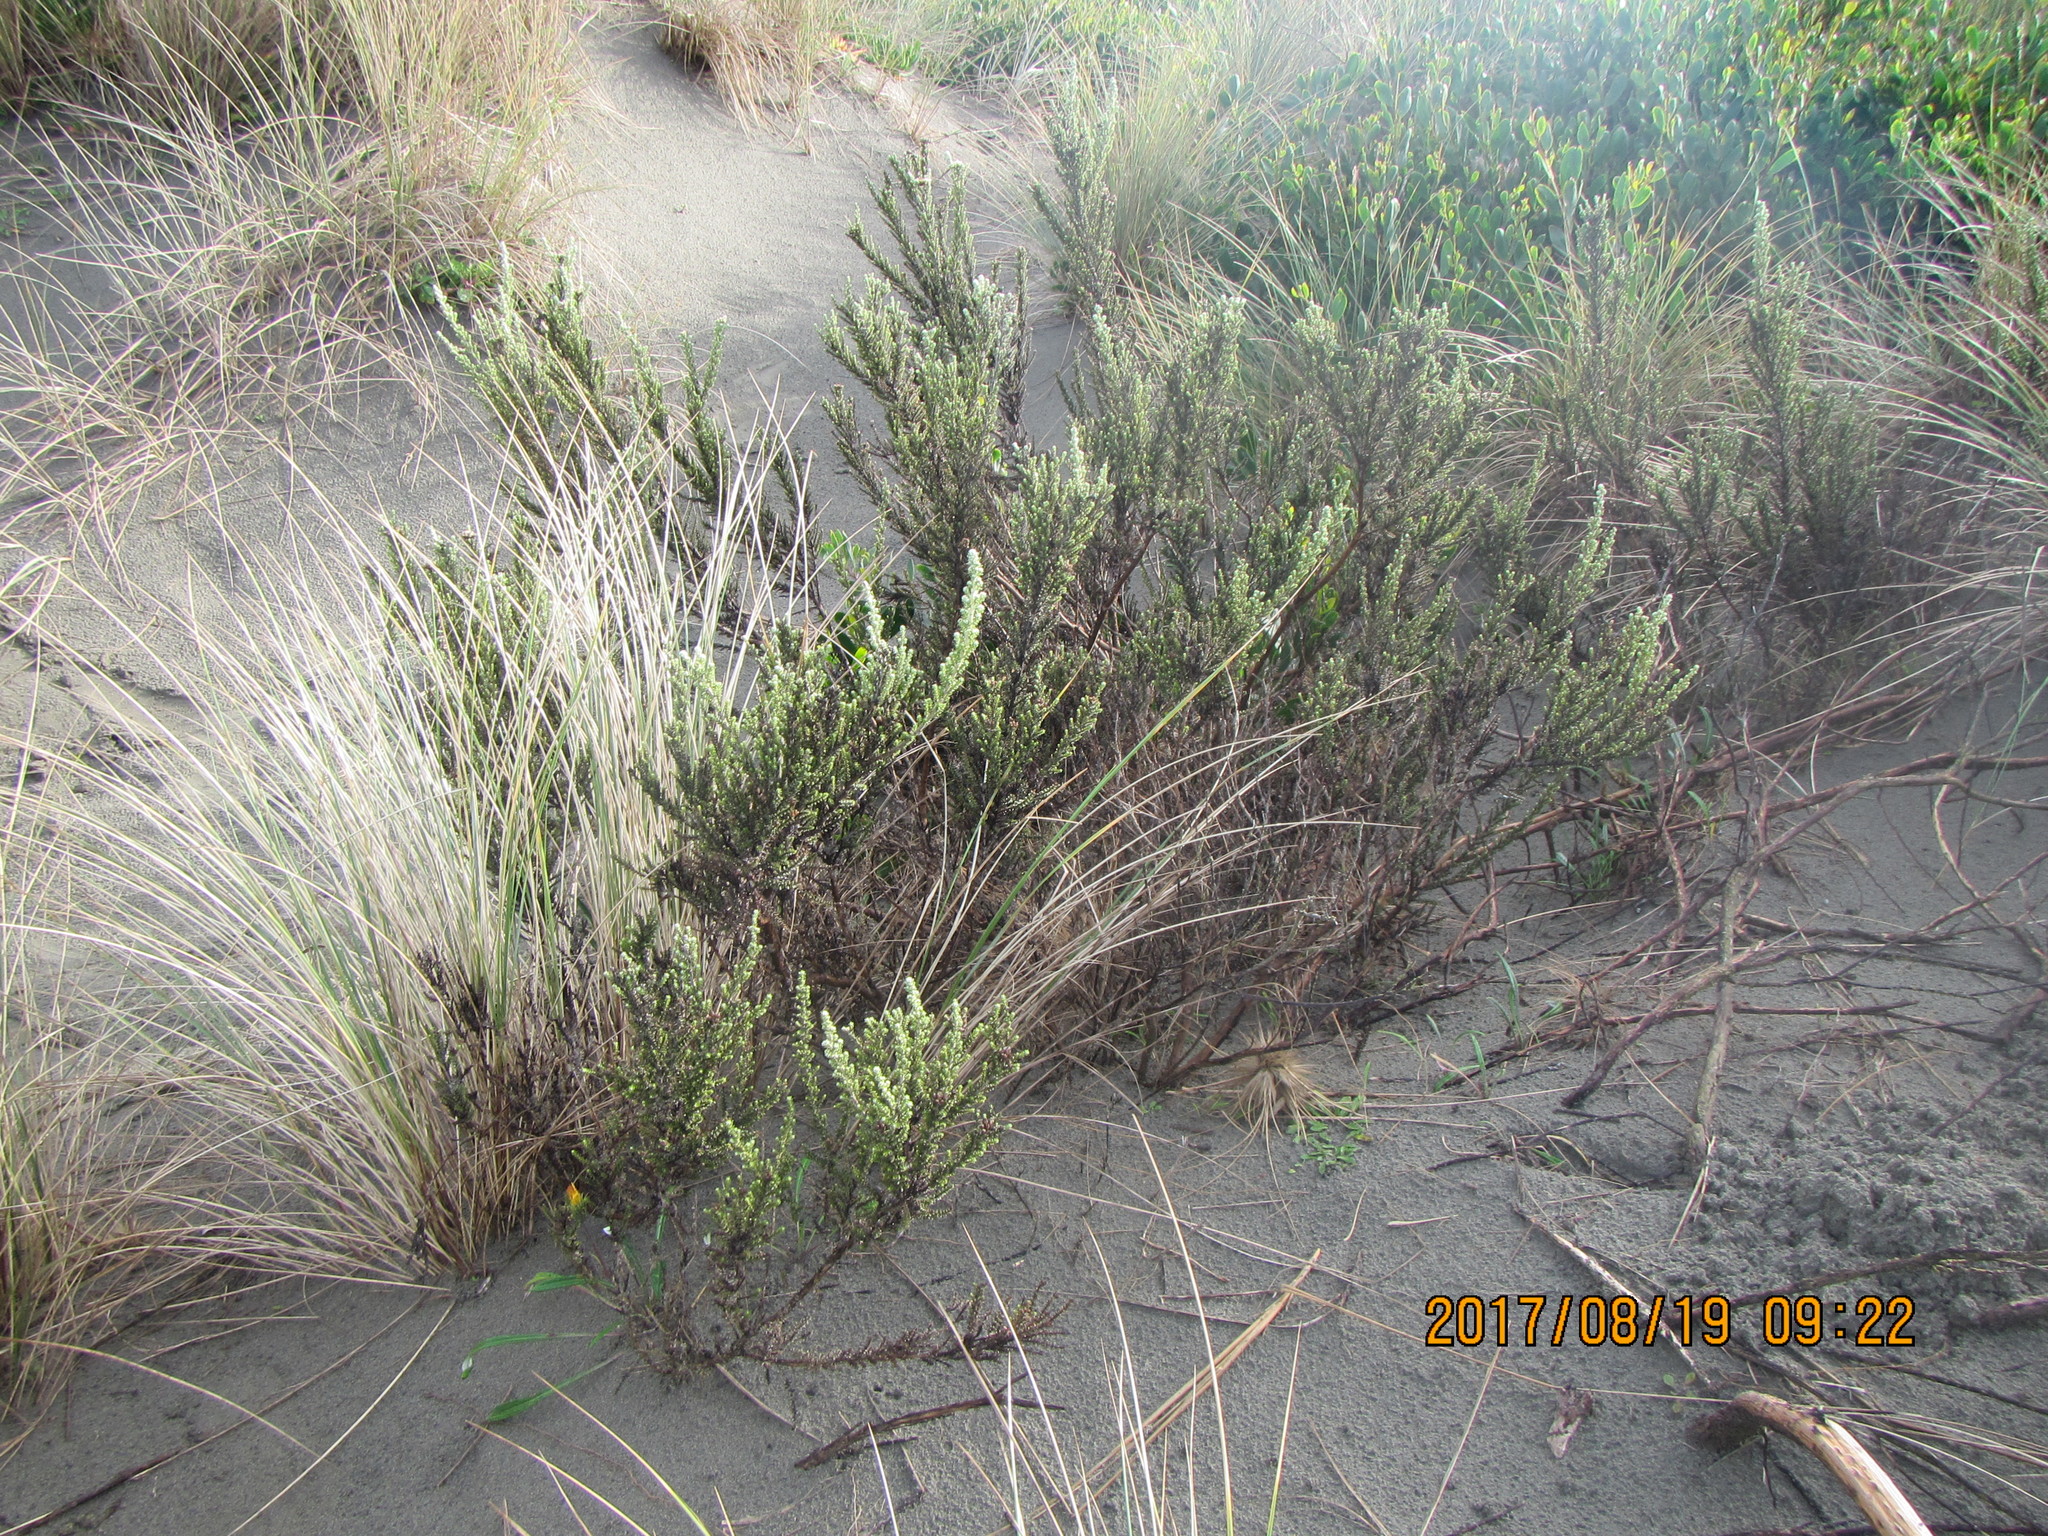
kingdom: Plantae
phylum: Tracheophyta
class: Magnoliopsida
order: Asterales
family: Asteraceae
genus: Ozothamnus
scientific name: Ozothamnus leptophyllus
